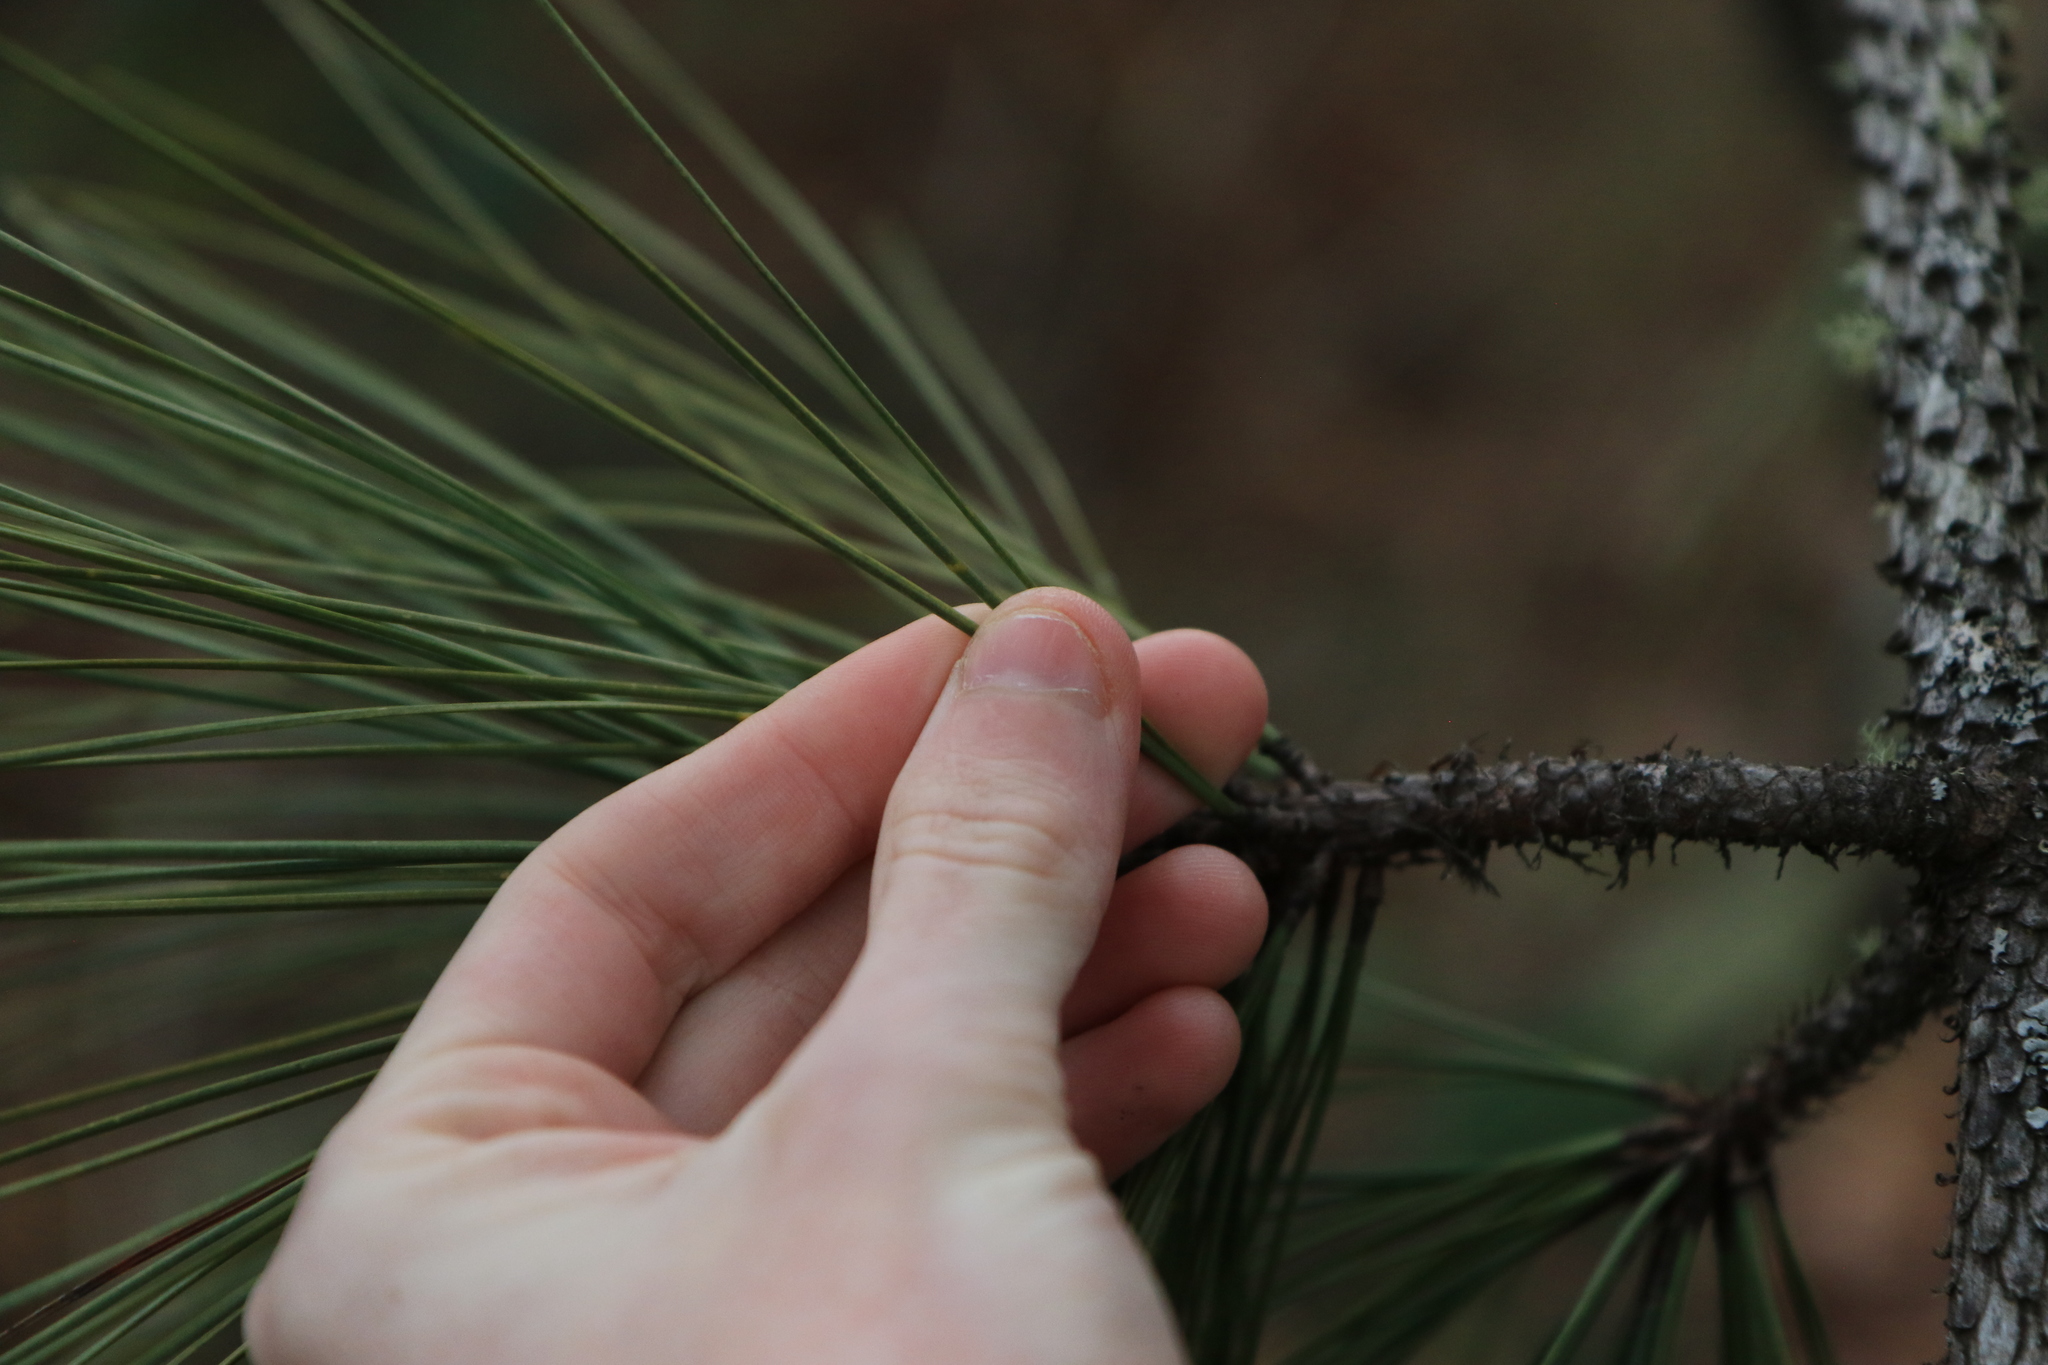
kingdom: Plantae
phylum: Tracheophyta
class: Pinopsida
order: Pinales
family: Pinaceae
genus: Pinus
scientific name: Pinus ponderosa
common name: Western yellow-pine
